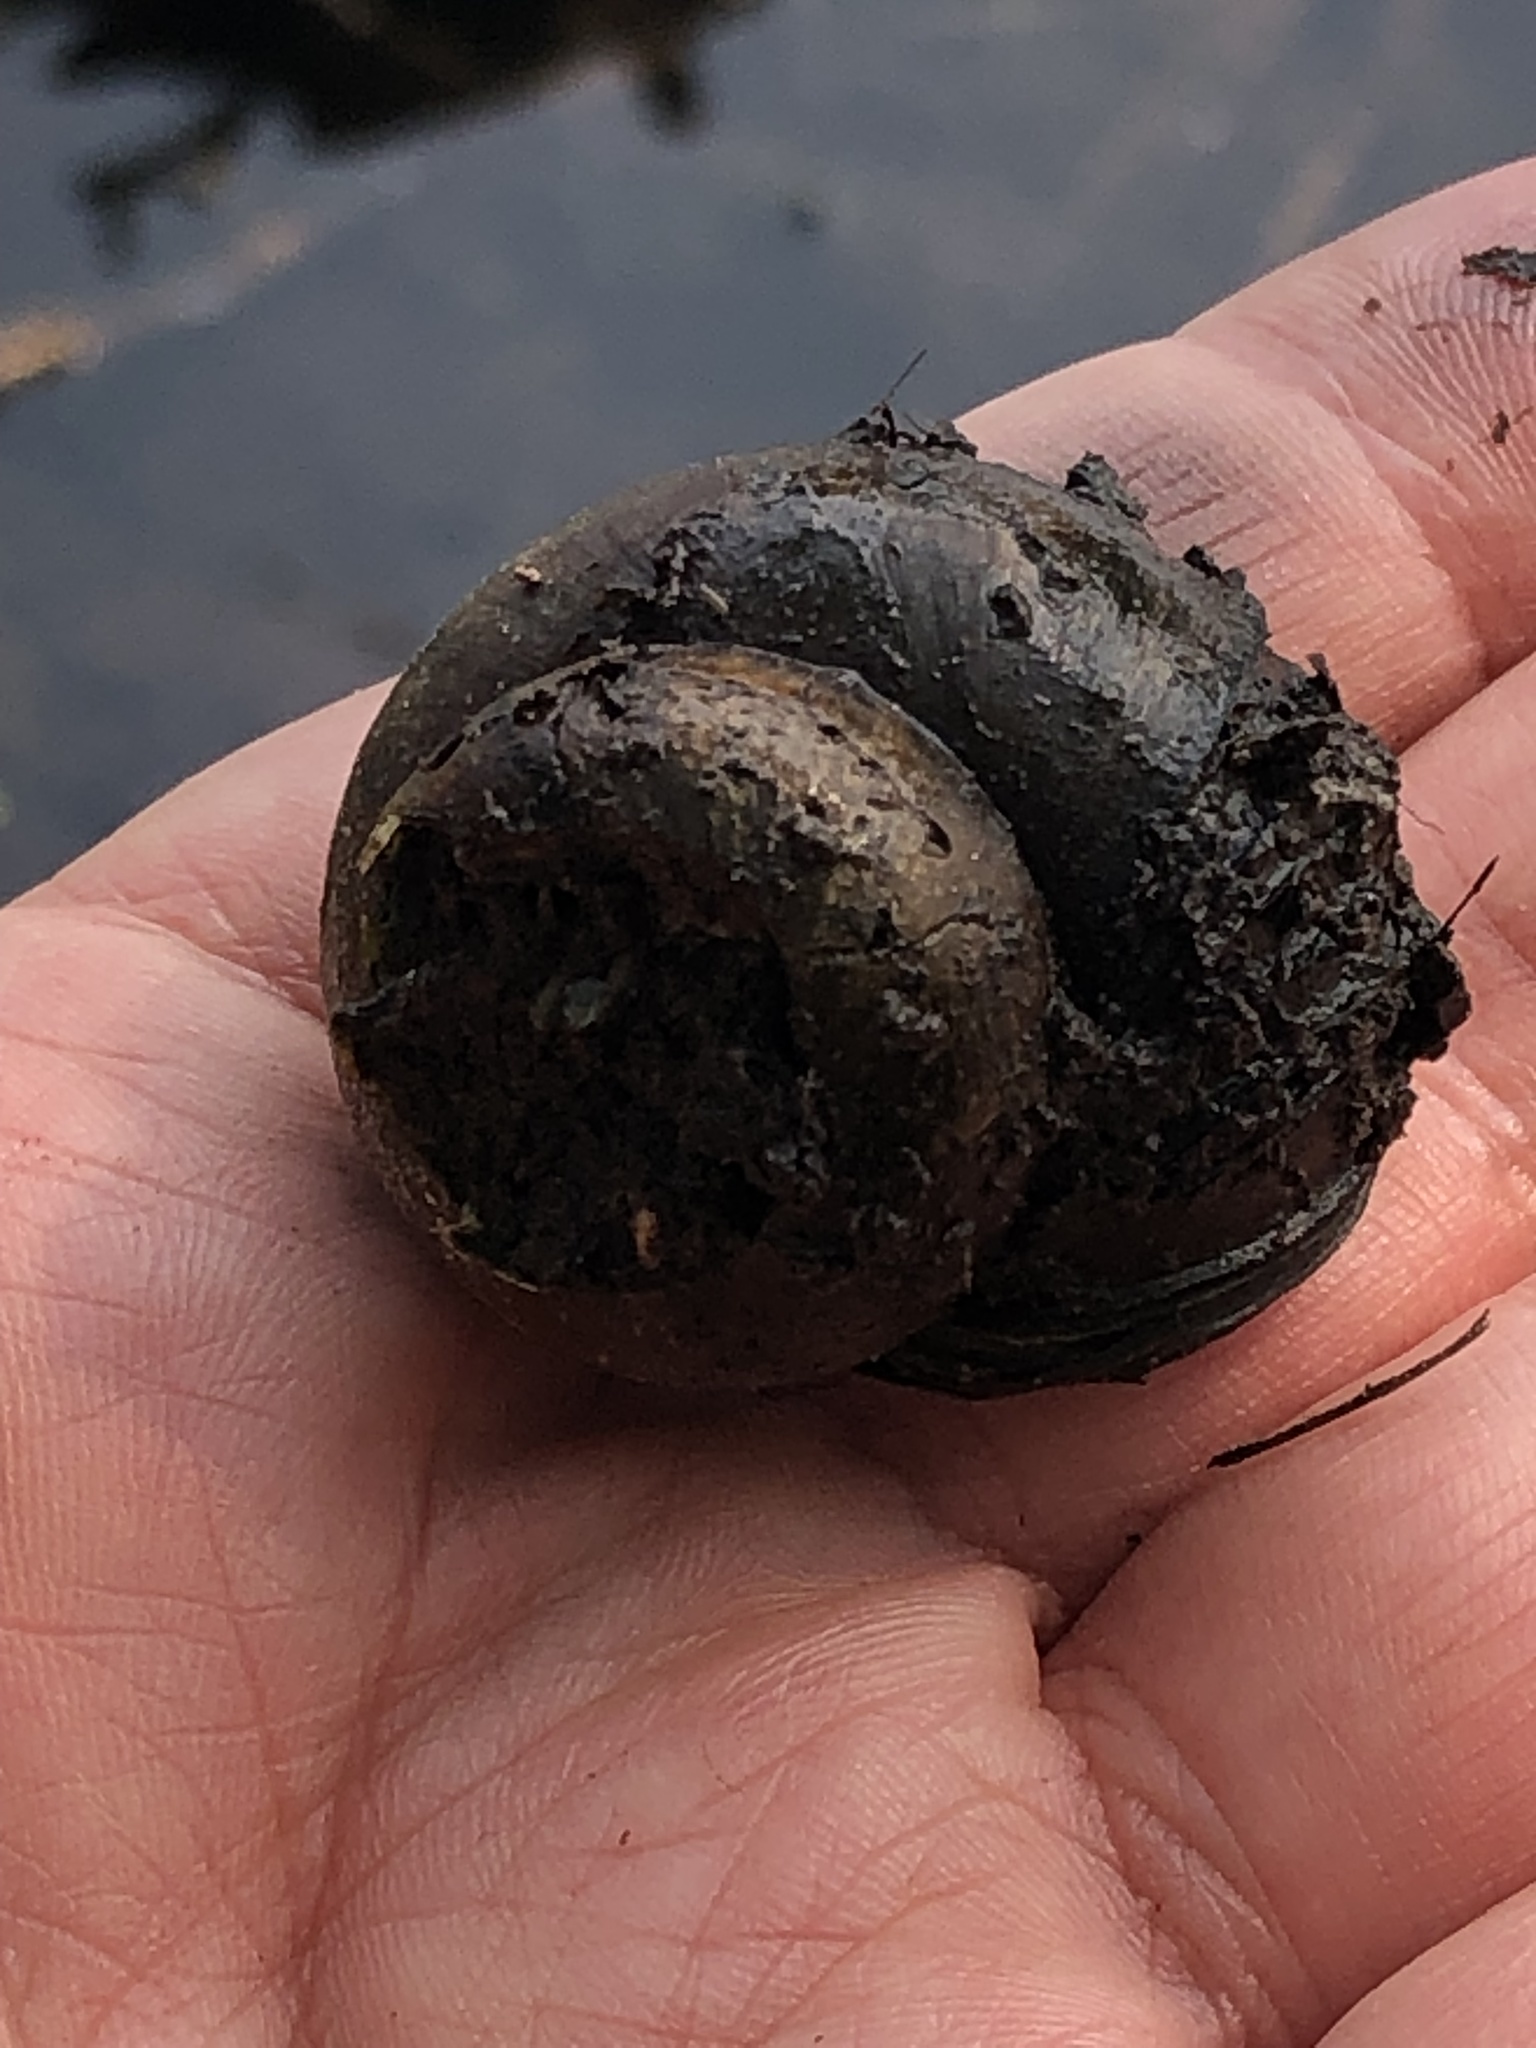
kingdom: Animalia
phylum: Mollusca
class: Gastropoda
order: Architaenioglossa
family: Viviparidae
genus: Cipangopaludina
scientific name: Cipangopaludina chinensis
